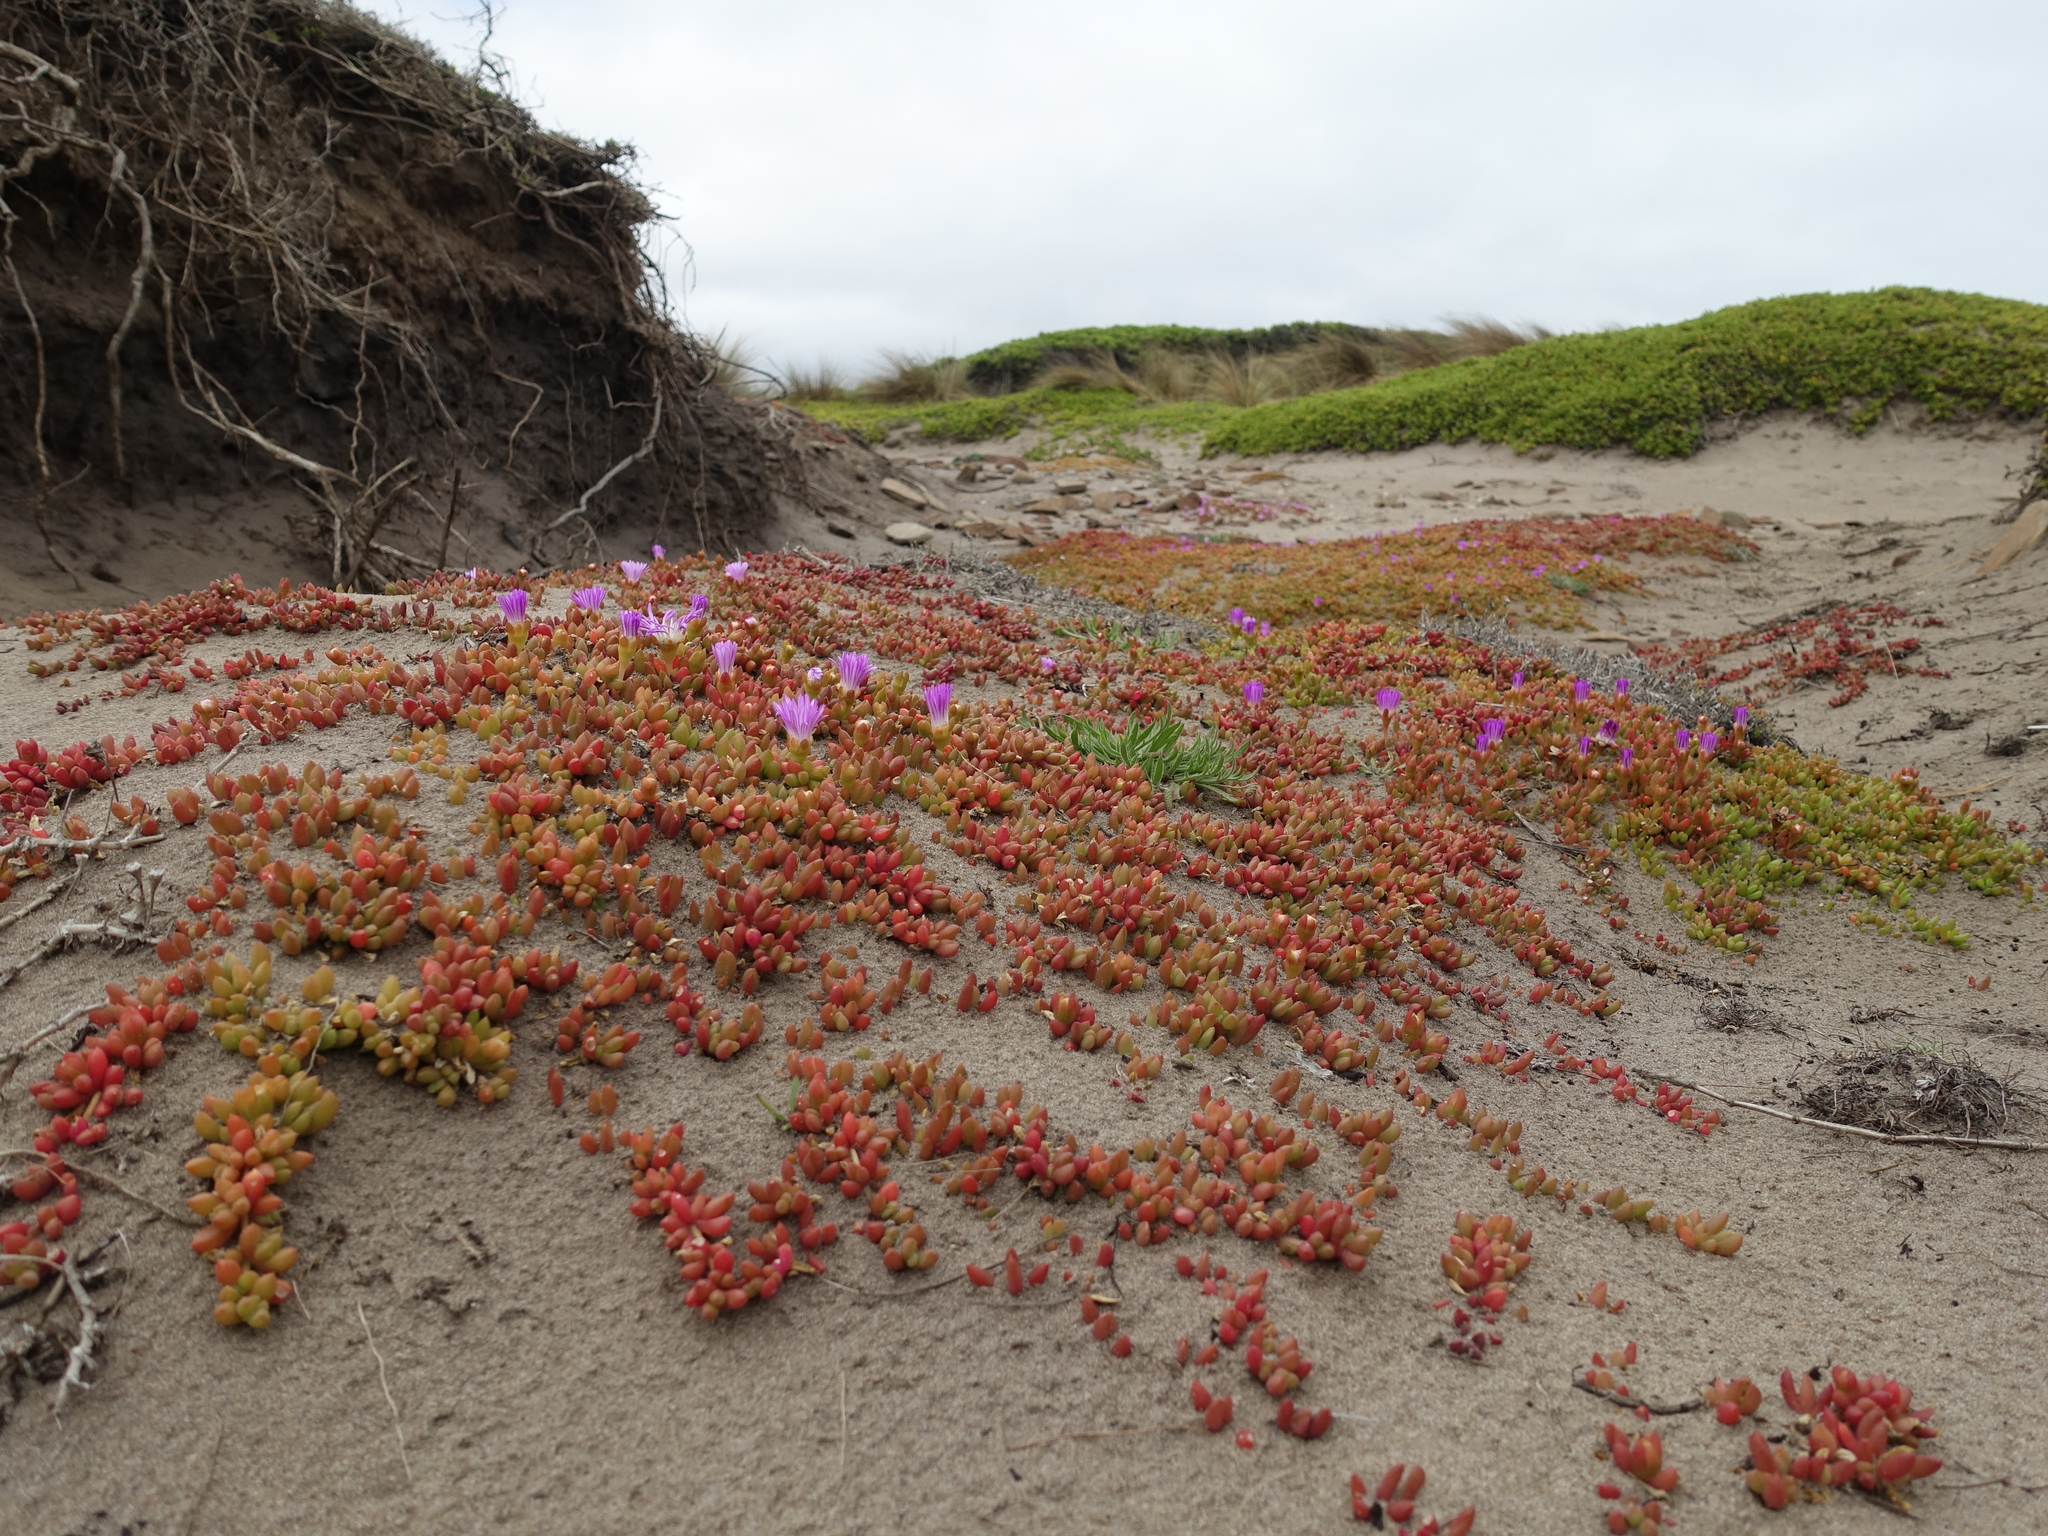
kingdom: Plantae
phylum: Tracheophyta
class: Magnoliopsida
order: Caryophyllales
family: Aizoaceae
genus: Disphyma
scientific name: Disphyma clavellatum
